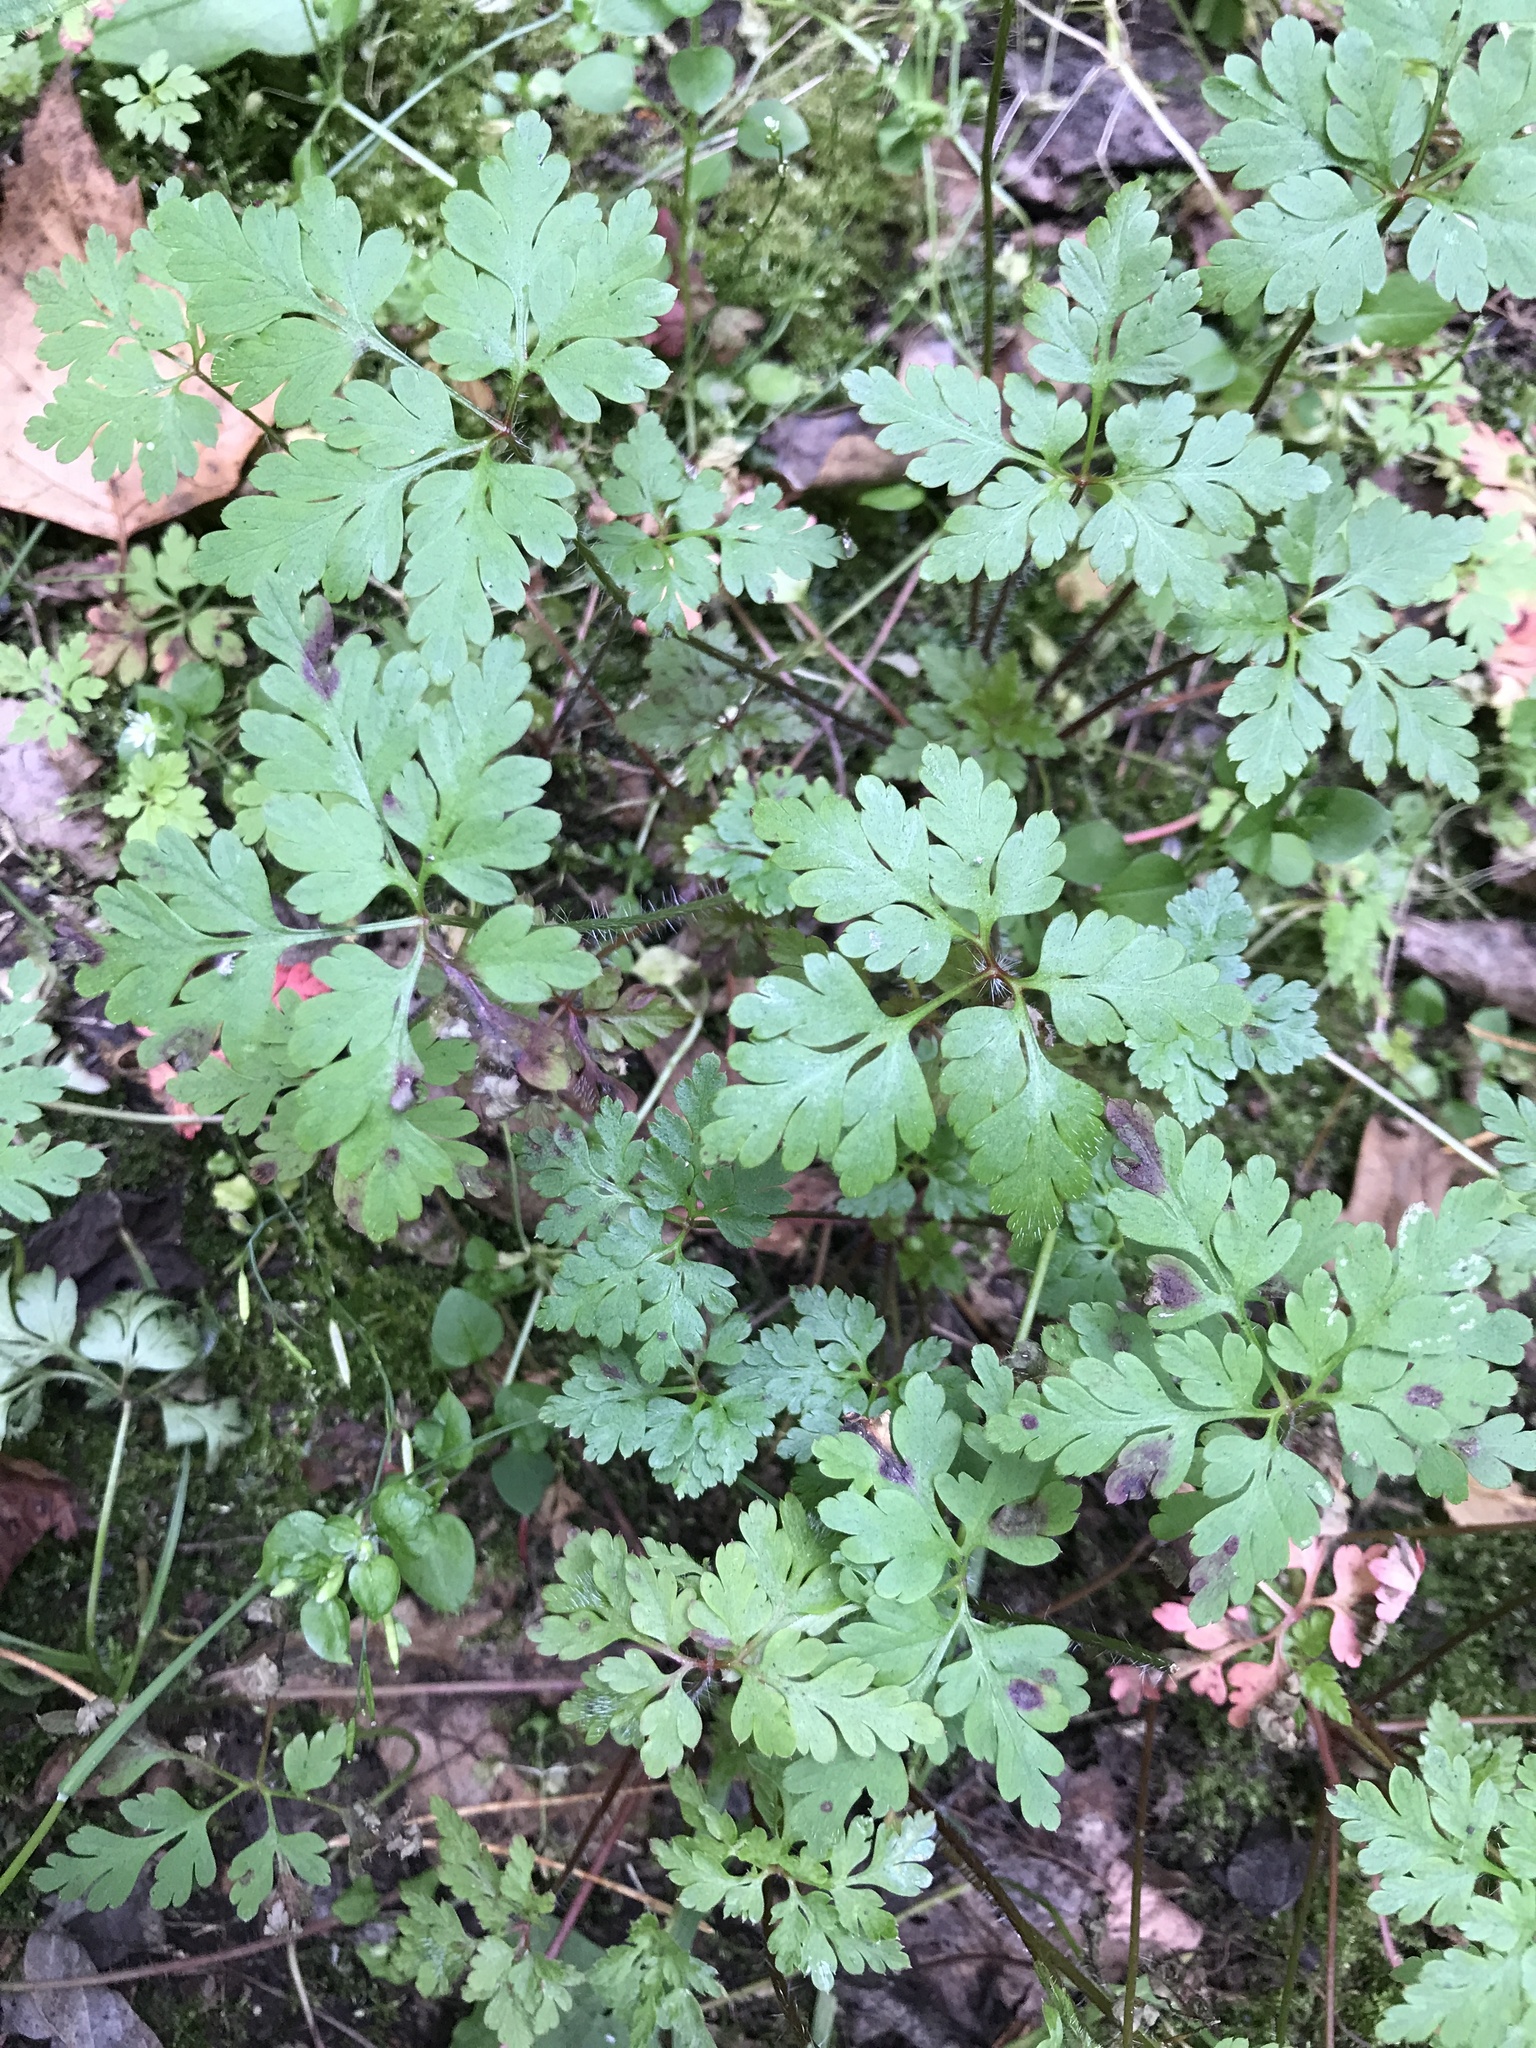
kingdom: Plantae
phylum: Tracheophyta
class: Magnoliopsida
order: Geraniales
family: Geraniaceae
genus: Geranium
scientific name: Geranium robertianum
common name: Herb-robert
